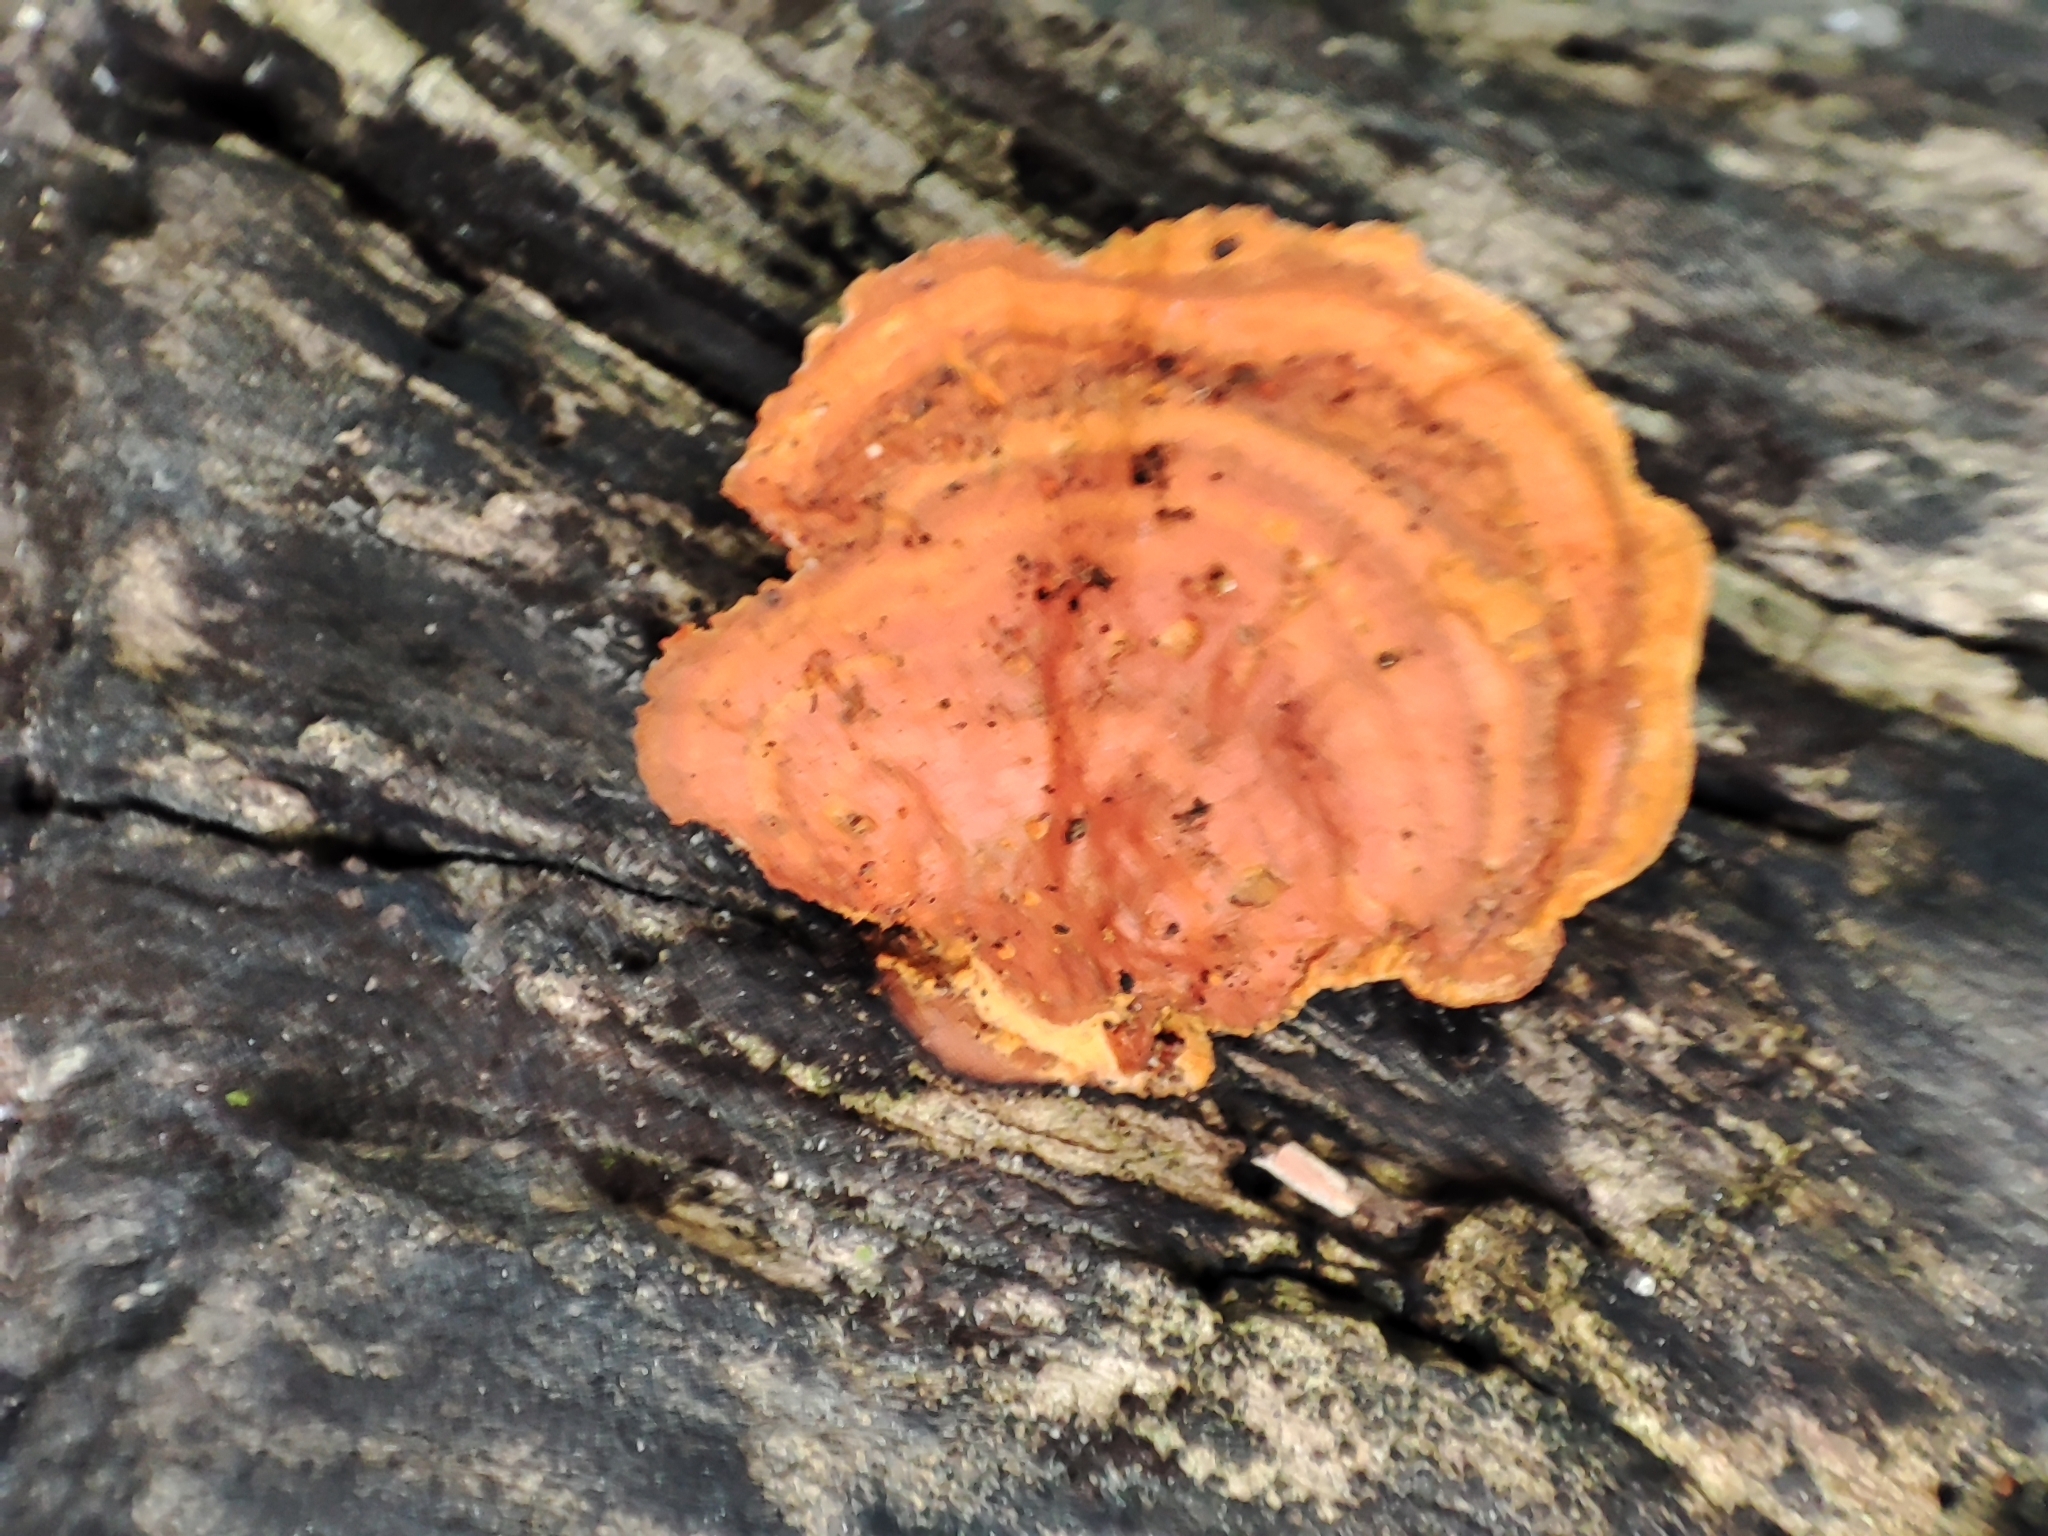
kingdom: Fungi
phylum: Basidiomycota
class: Agaricomycetes
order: Polyporales
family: Polyporaceae
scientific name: Polyporaceae
